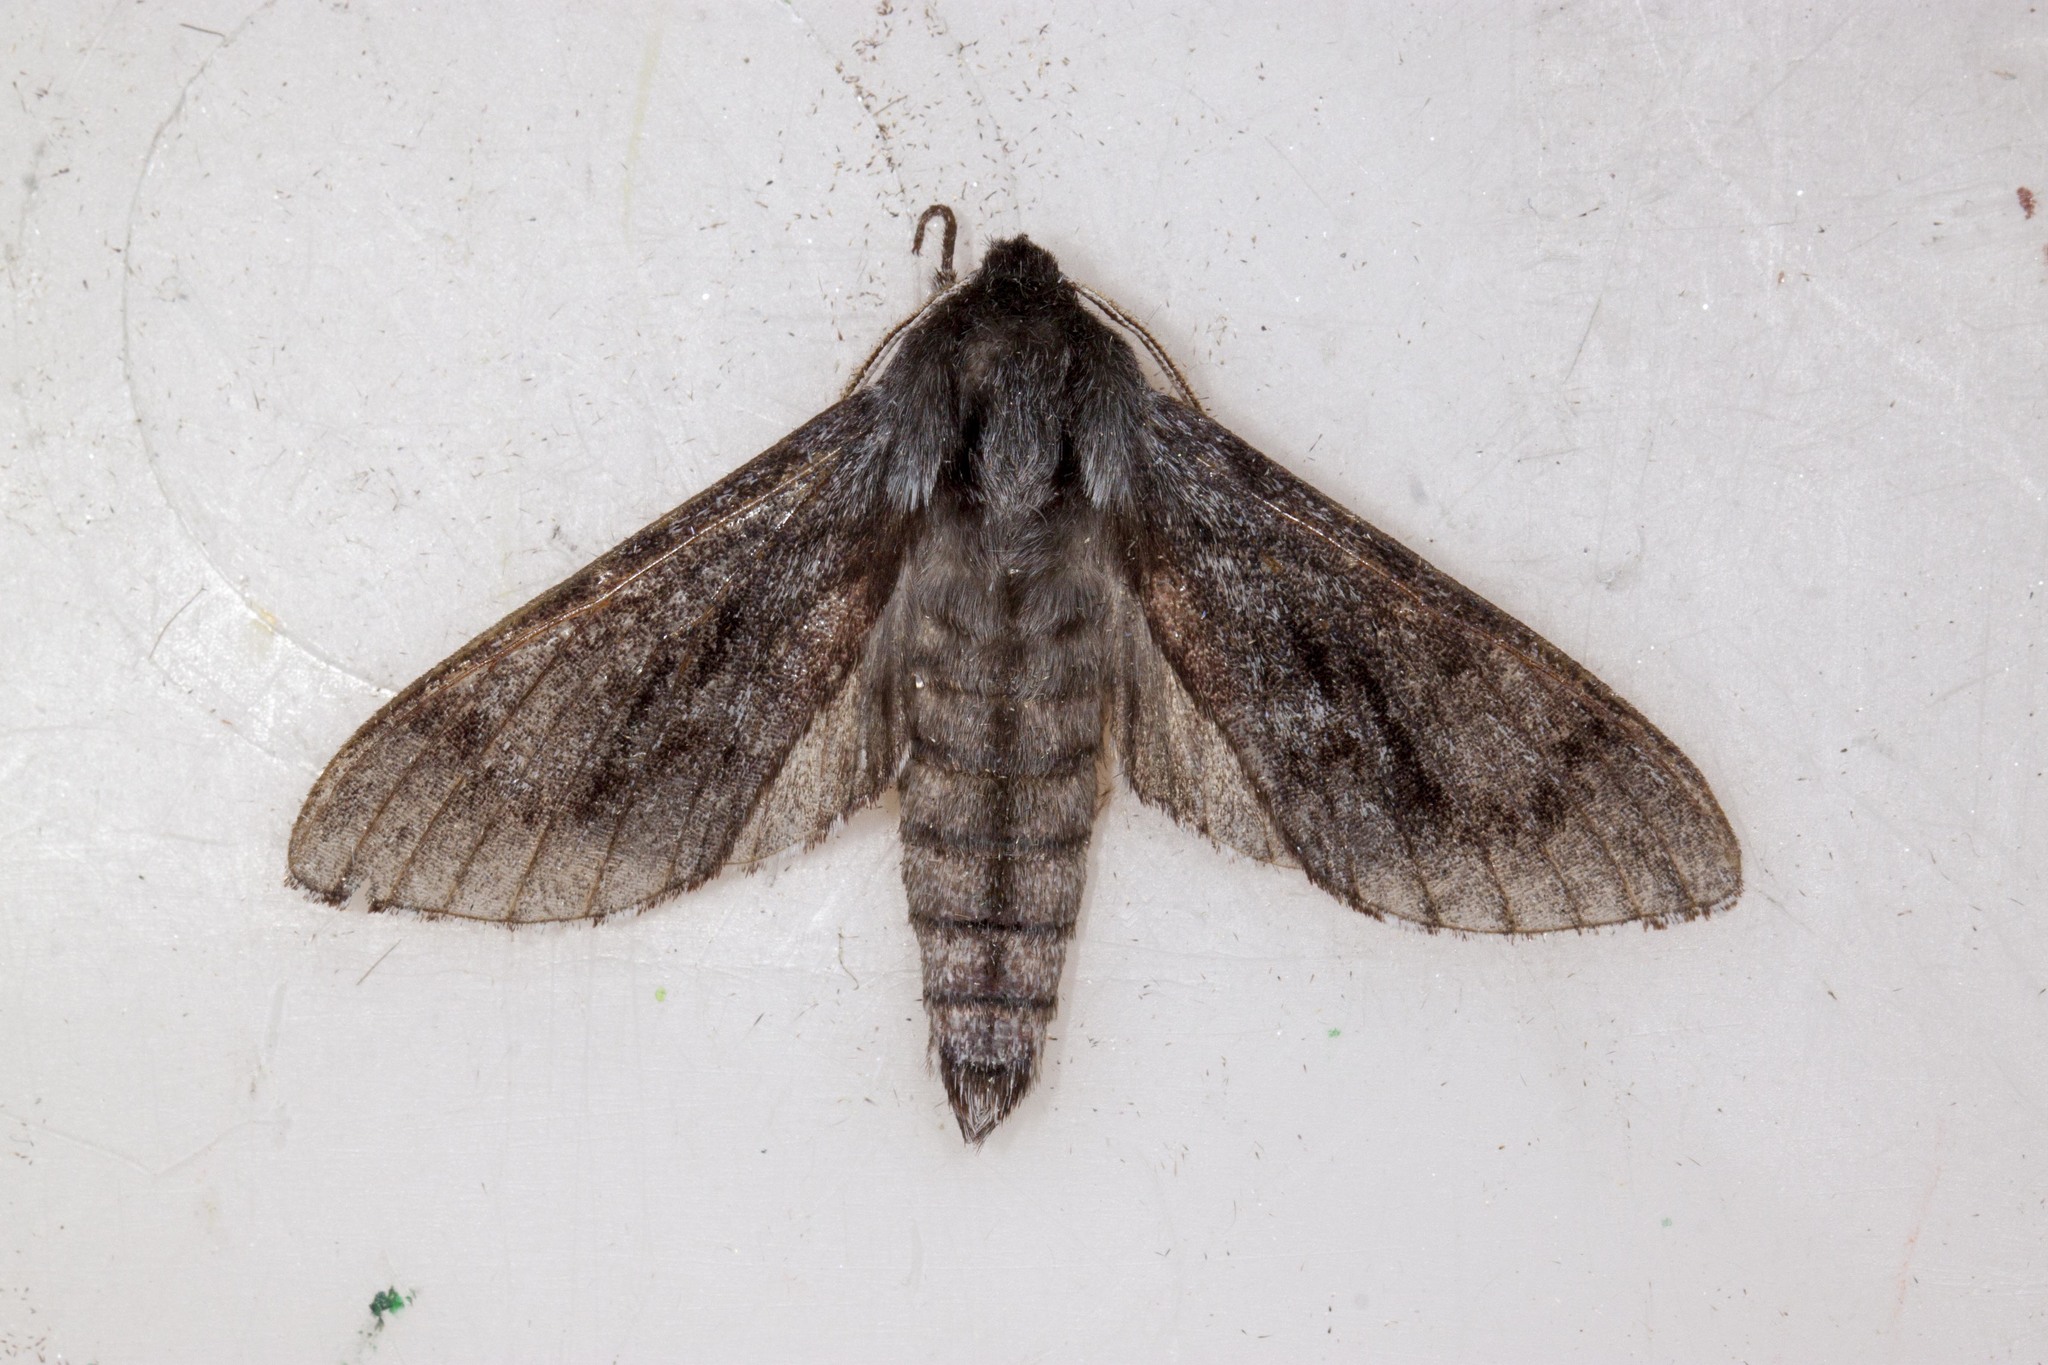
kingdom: Animalia
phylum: Arthropoda
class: Insecta
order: Lepidoptera
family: Sphingidae
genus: Lapara
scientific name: Lapara bombycoides
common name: Northern pine sphinx
